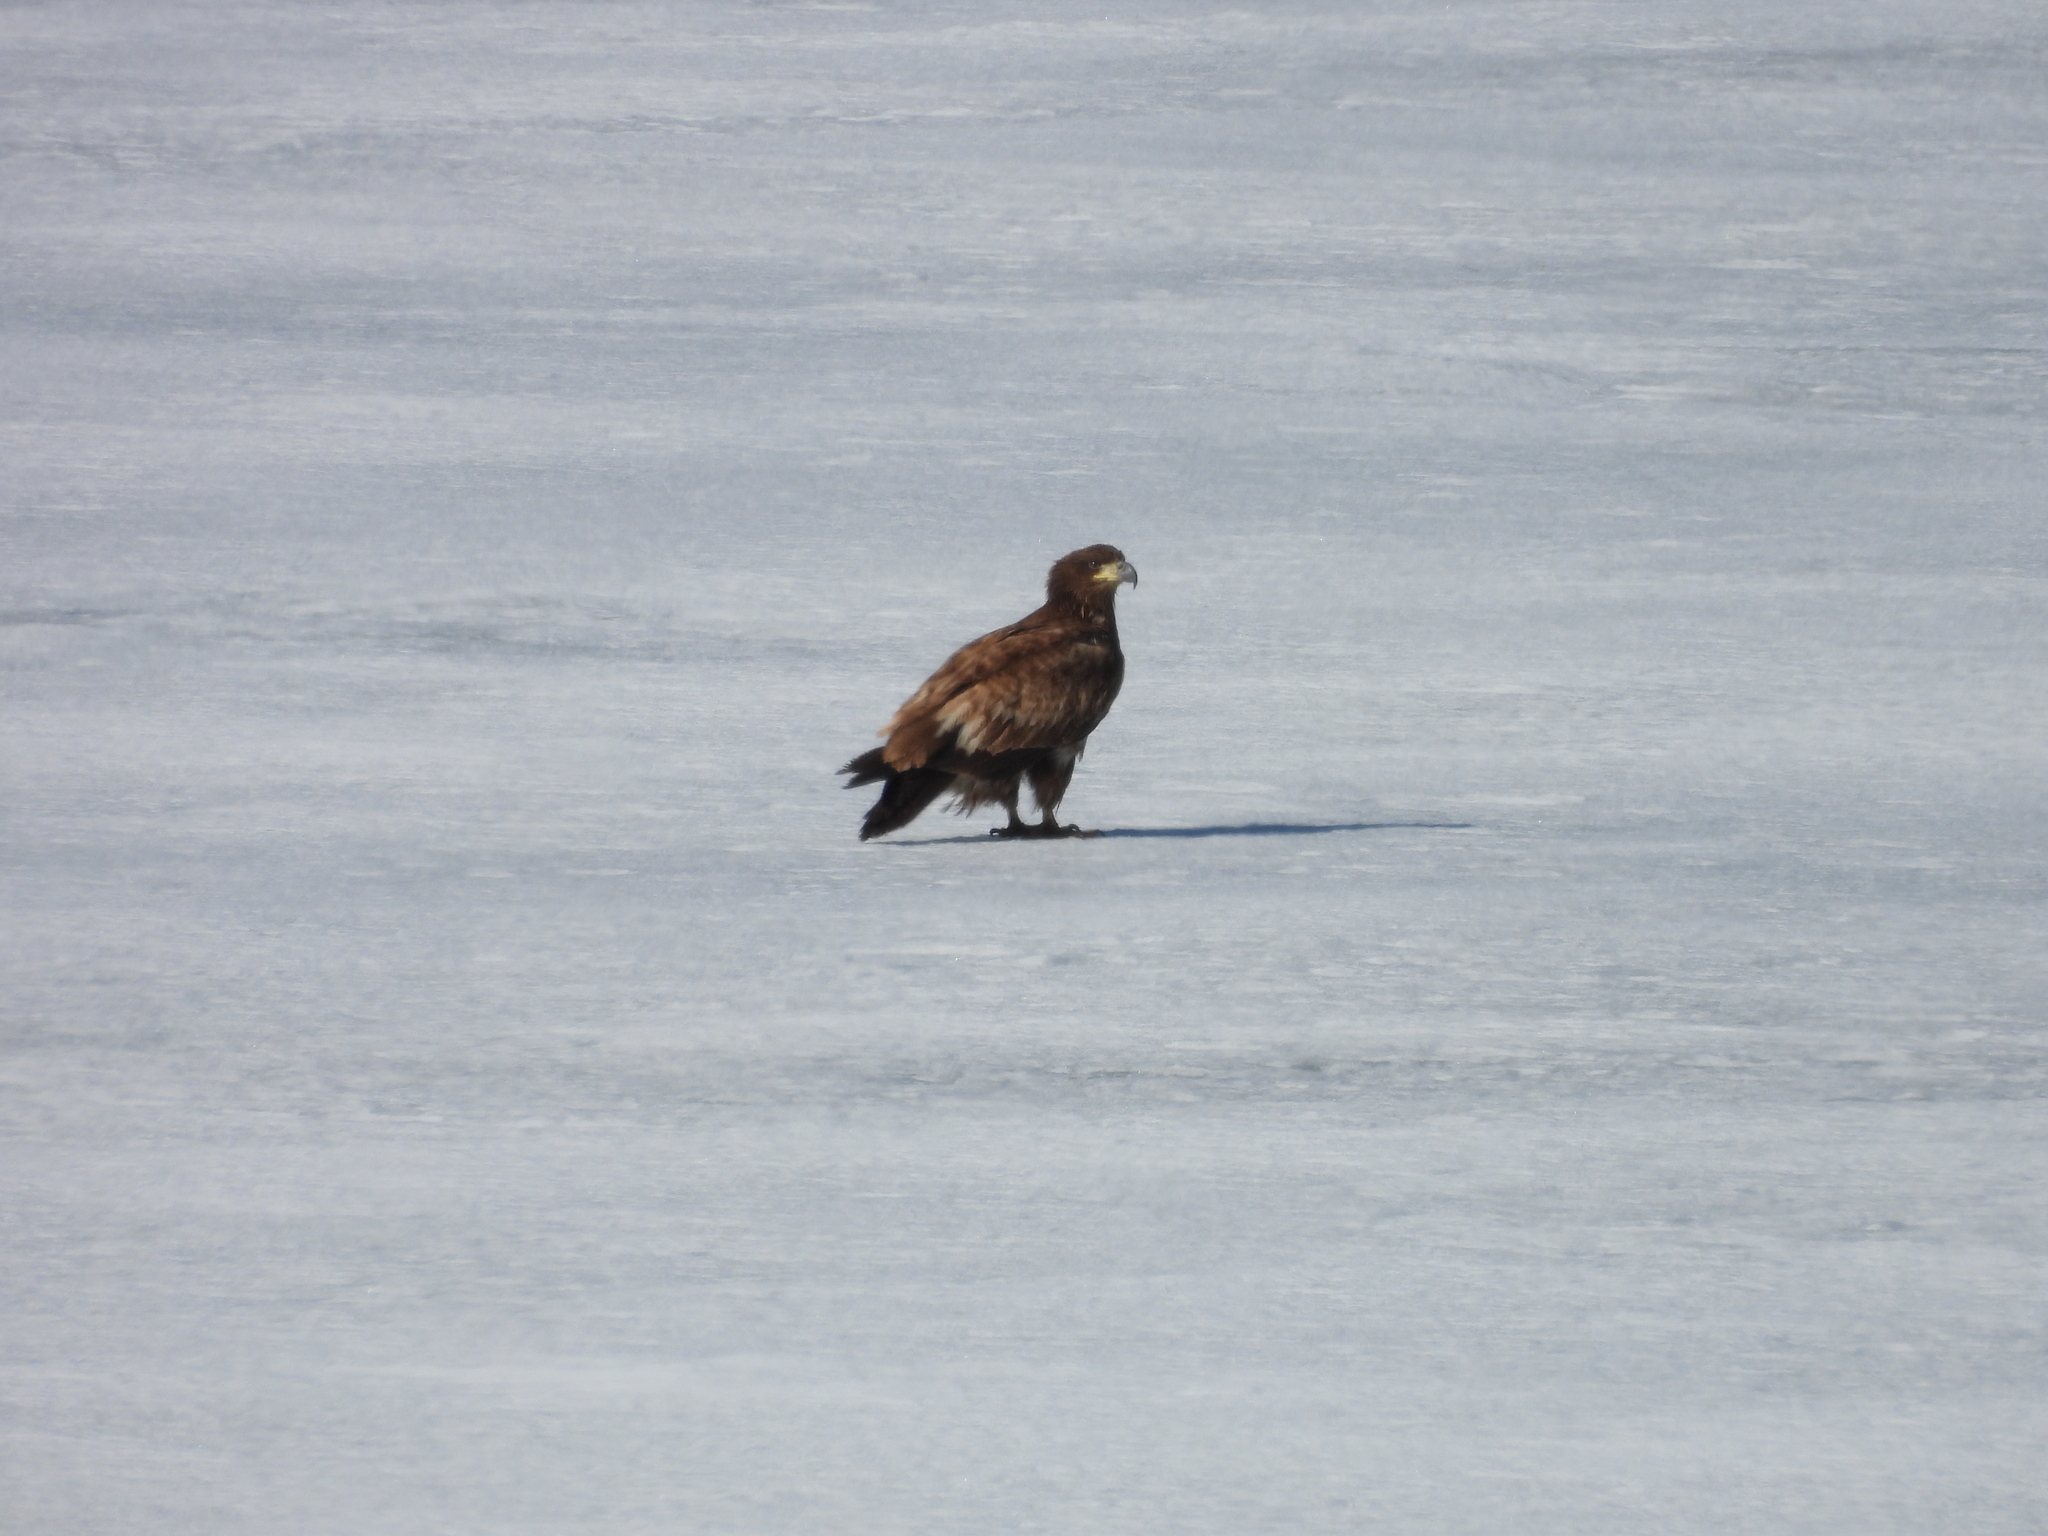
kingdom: Animalia
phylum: Chordata
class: Aves
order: Accipitriformes
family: Accipitridae
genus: Haliaeetus
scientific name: Haliaeetus leucocephalus
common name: Bald eagle
